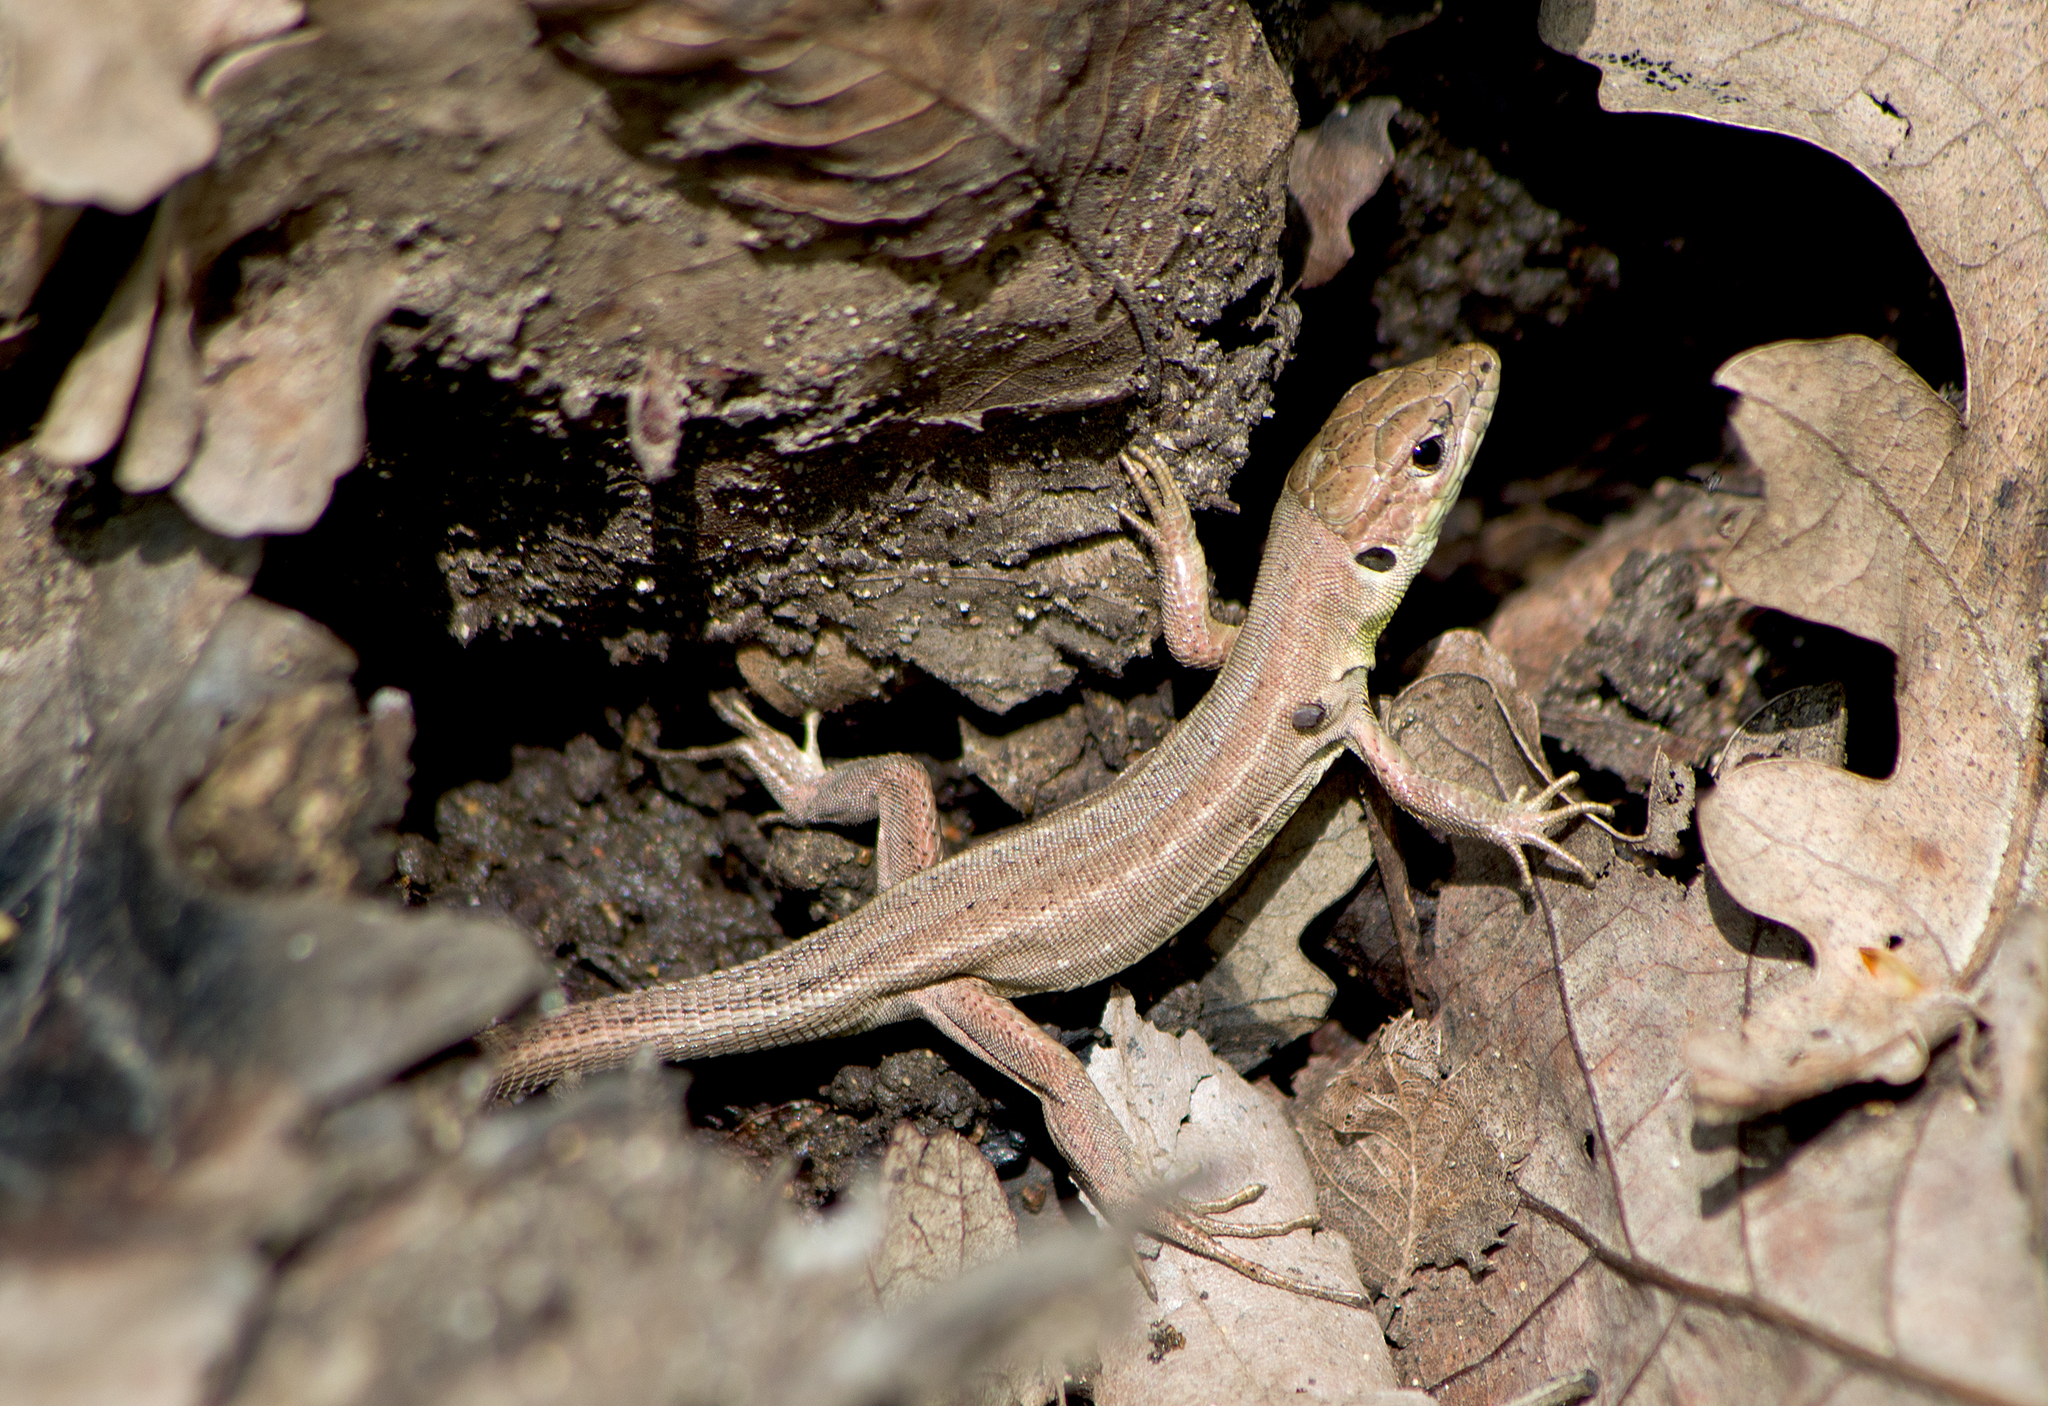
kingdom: Animalia
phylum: Chordata
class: Squamata
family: Lacertidae
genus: Lacerta
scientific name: Lacerta viridis
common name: European green lizard
